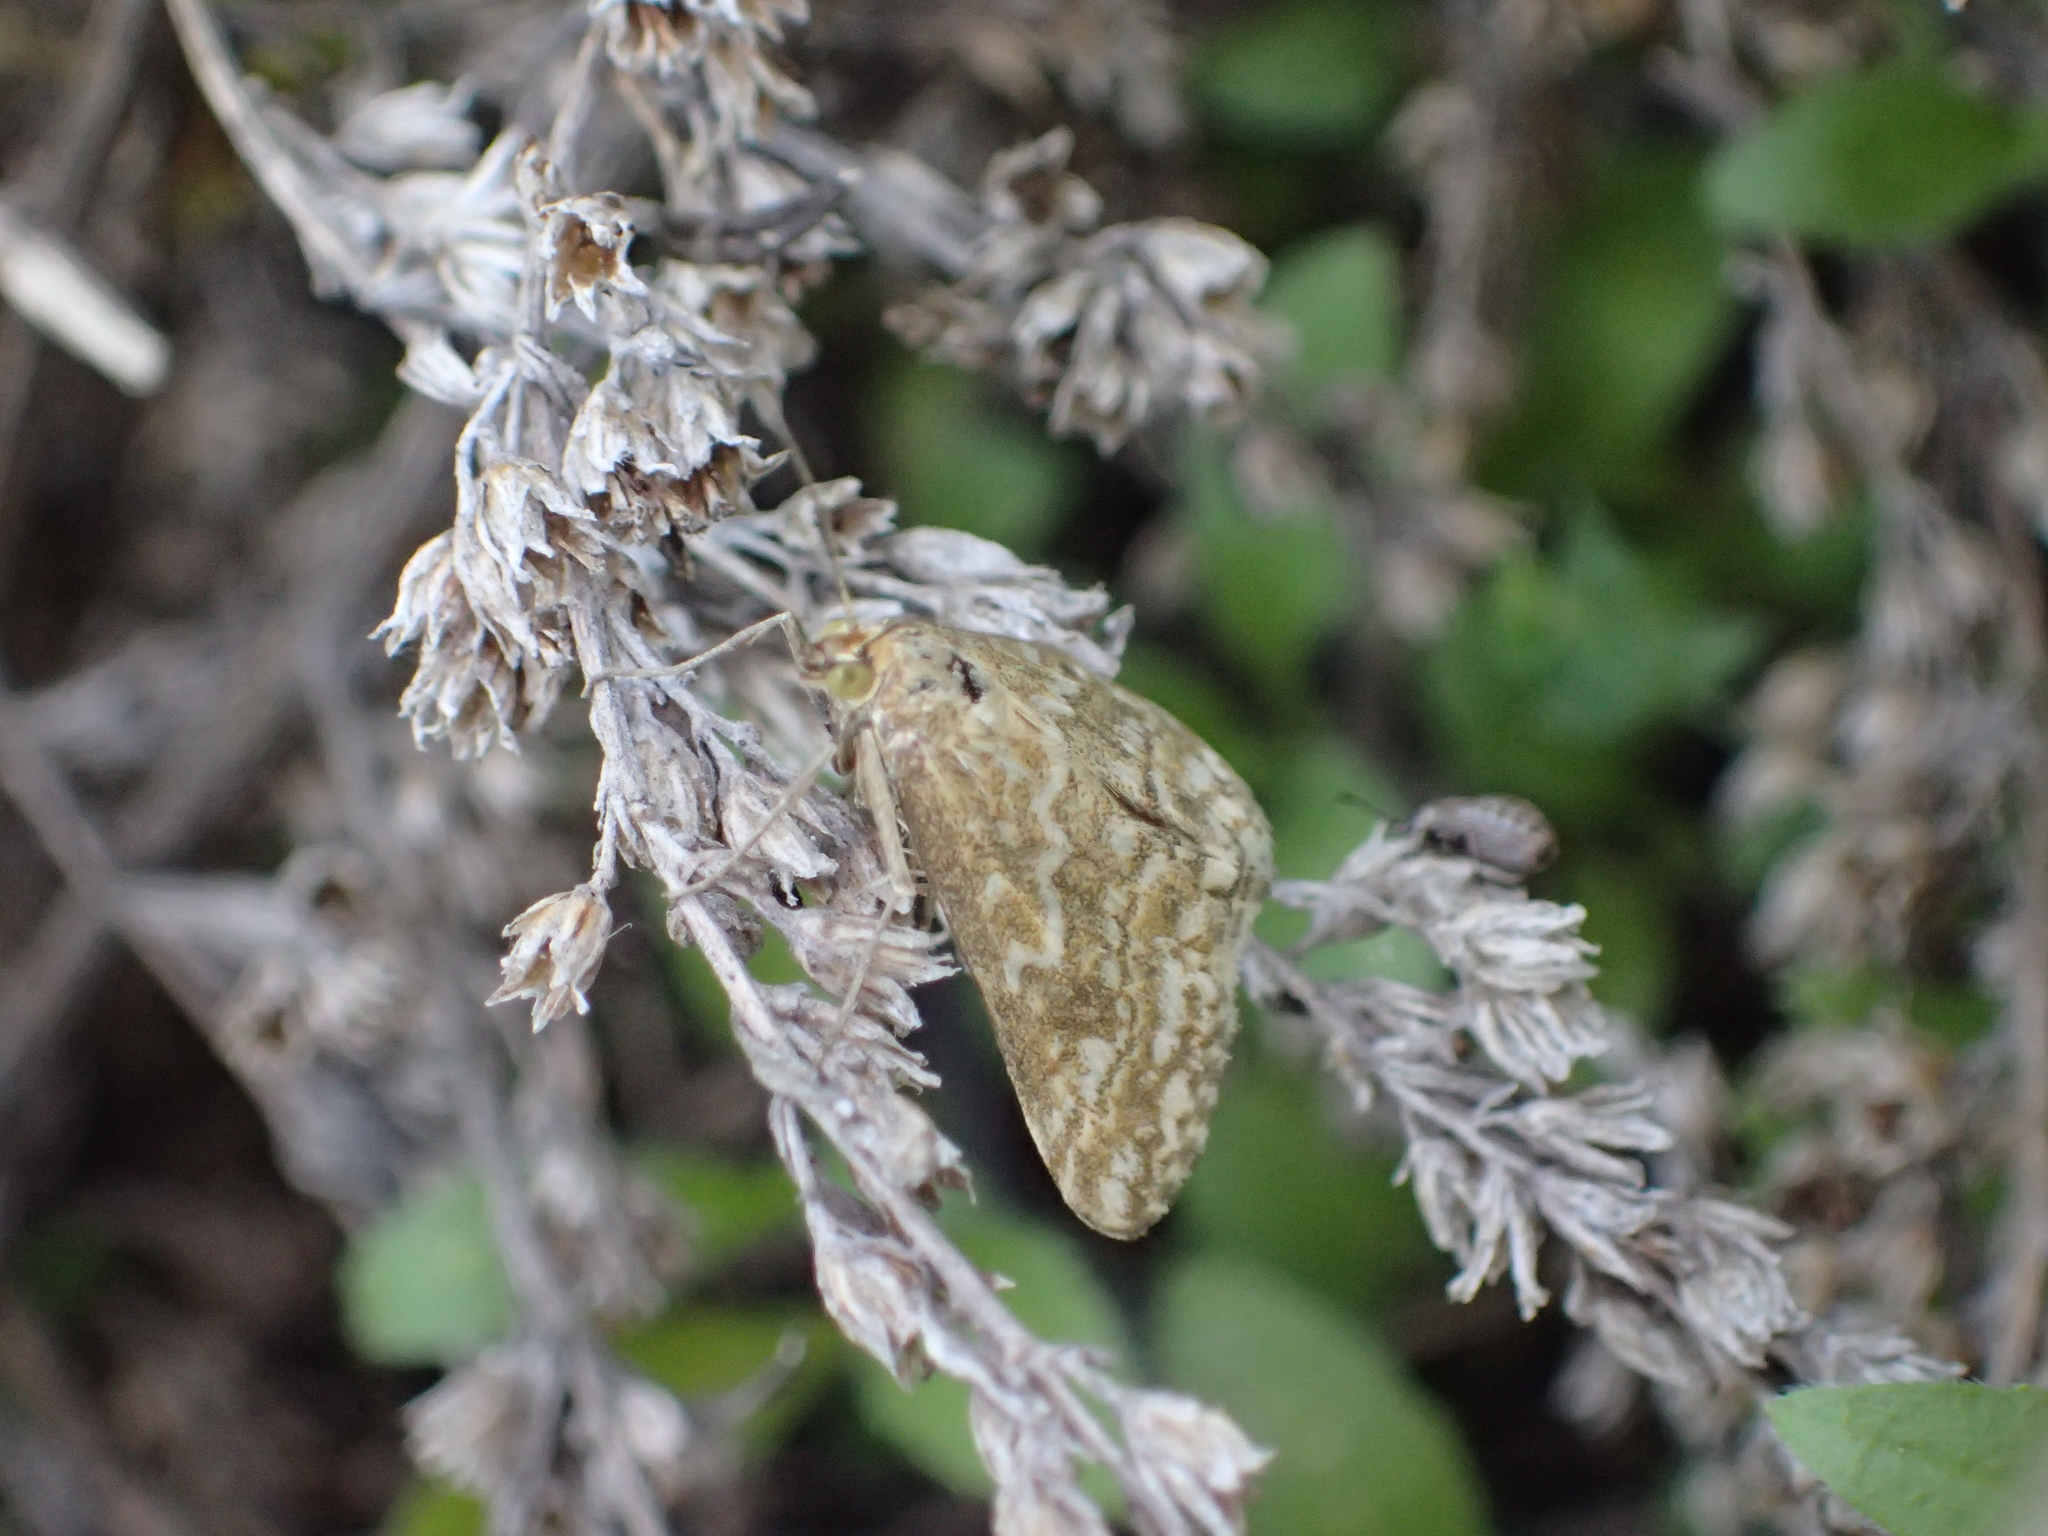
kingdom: Animalia
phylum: Arthropoda
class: Insecta
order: Lepidoptera
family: Crambidae
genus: Evergestis
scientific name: Evergestis frumentalis
